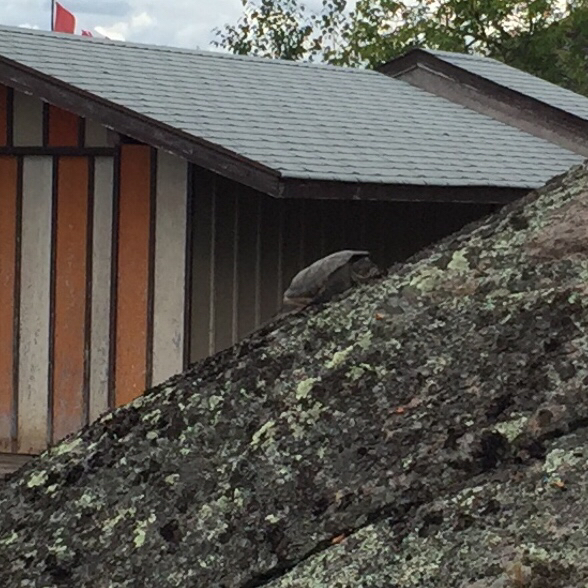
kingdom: Animalia
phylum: Chordata
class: Testudines
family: Chelydridae
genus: Chelydra
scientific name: Chelydra serpentina
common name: Common snapping turtle
